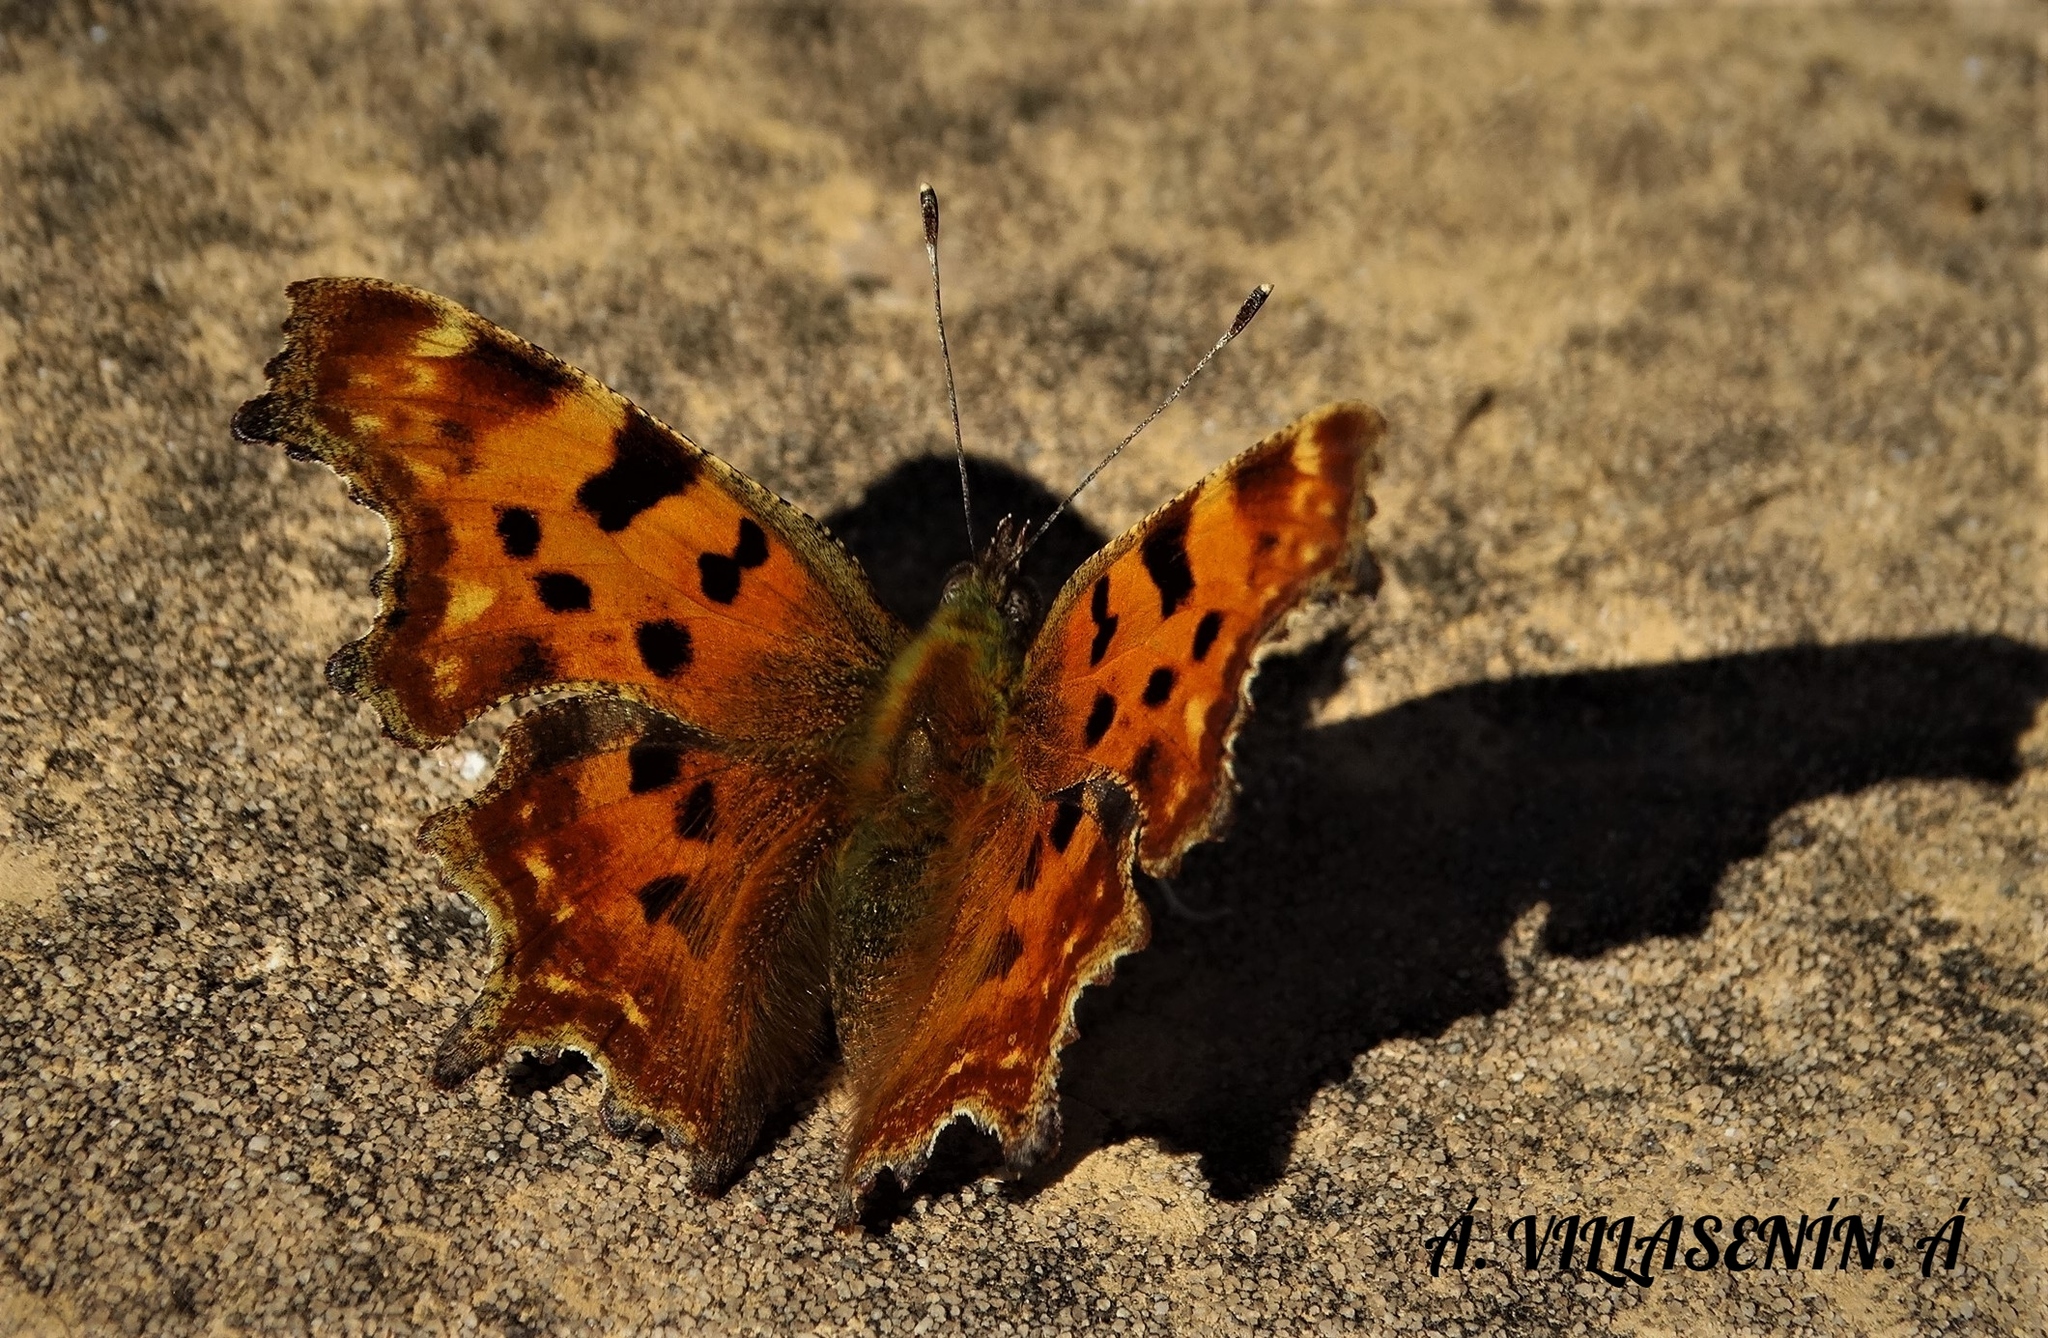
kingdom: Animalia
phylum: Arthropoda
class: Insecta
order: Lepidoptera
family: Nymphalidae
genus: Polygonia
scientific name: Polygonia c-album
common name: Comma
